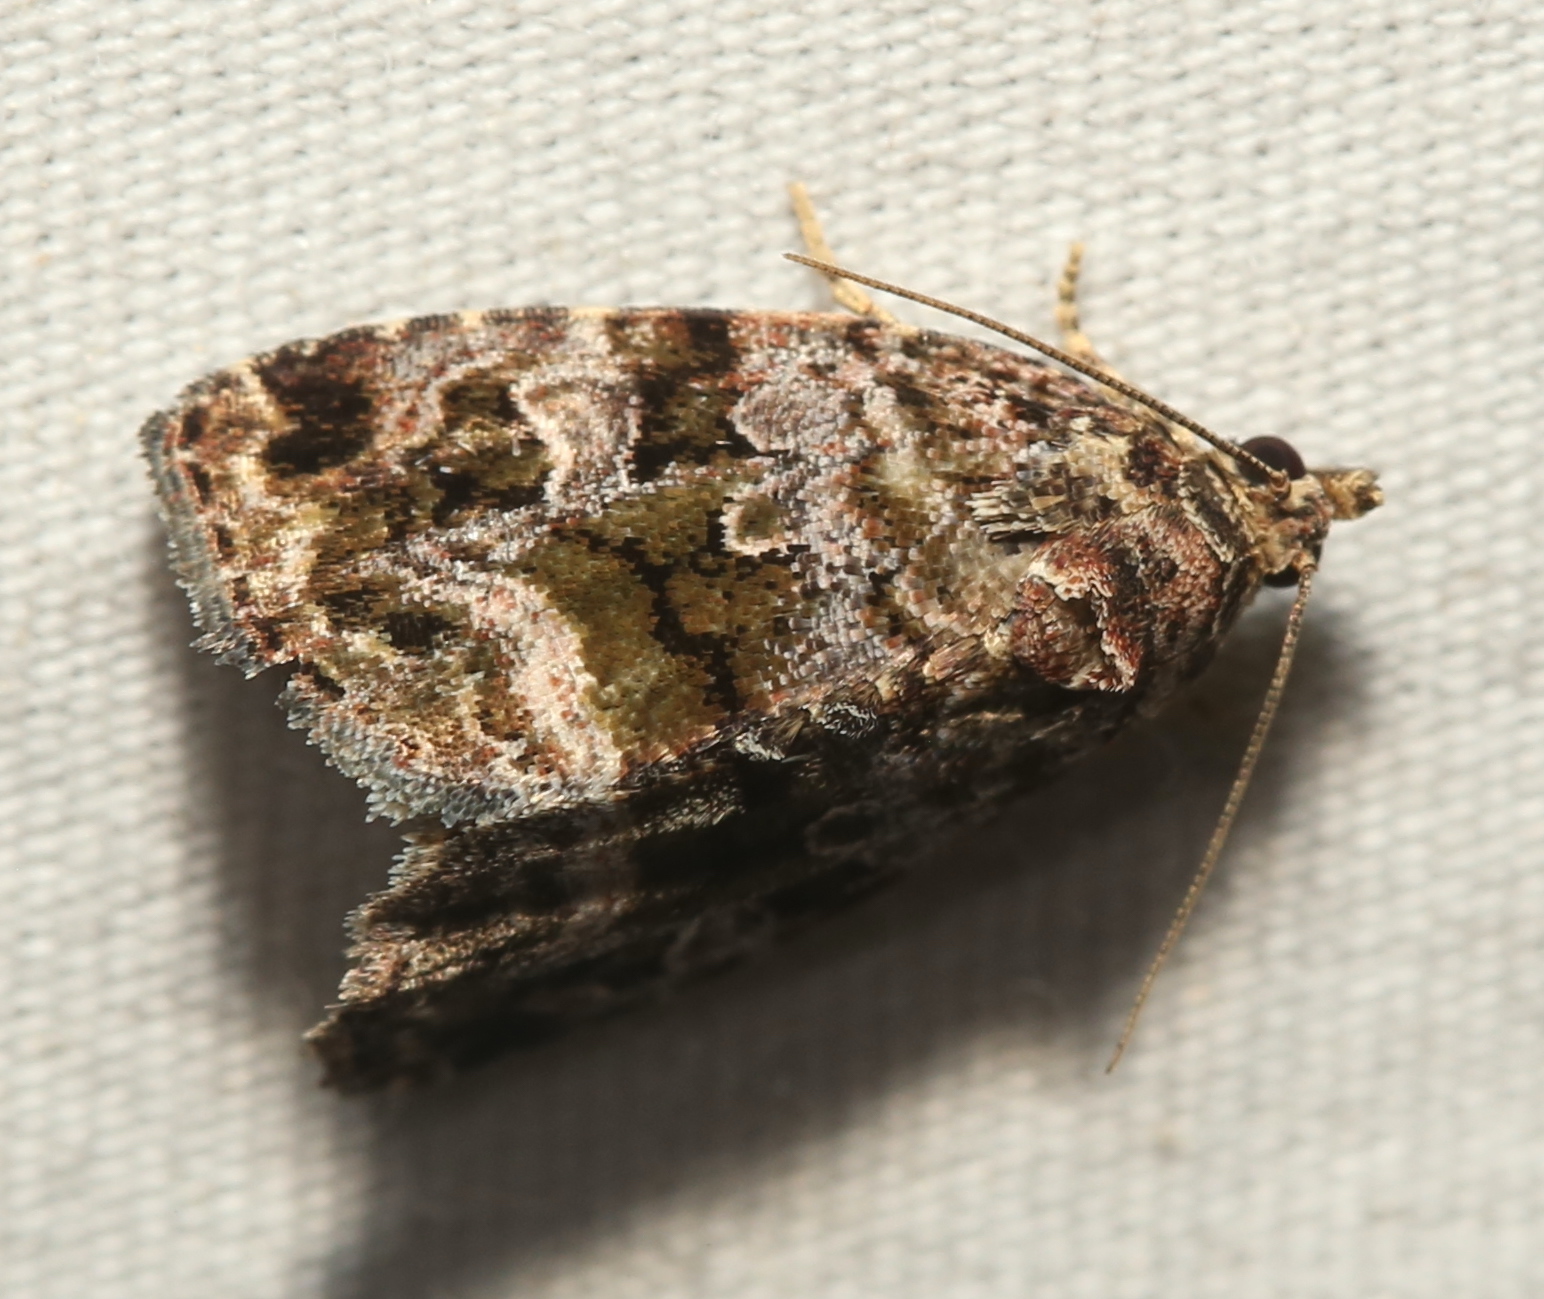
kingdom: Animalia
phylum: Arthropoda
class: Insecta
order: Lepidoptera
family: Noctuidae
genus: Protodeltote
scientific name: Protodeltote muscosula
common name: Large mossy glyph
